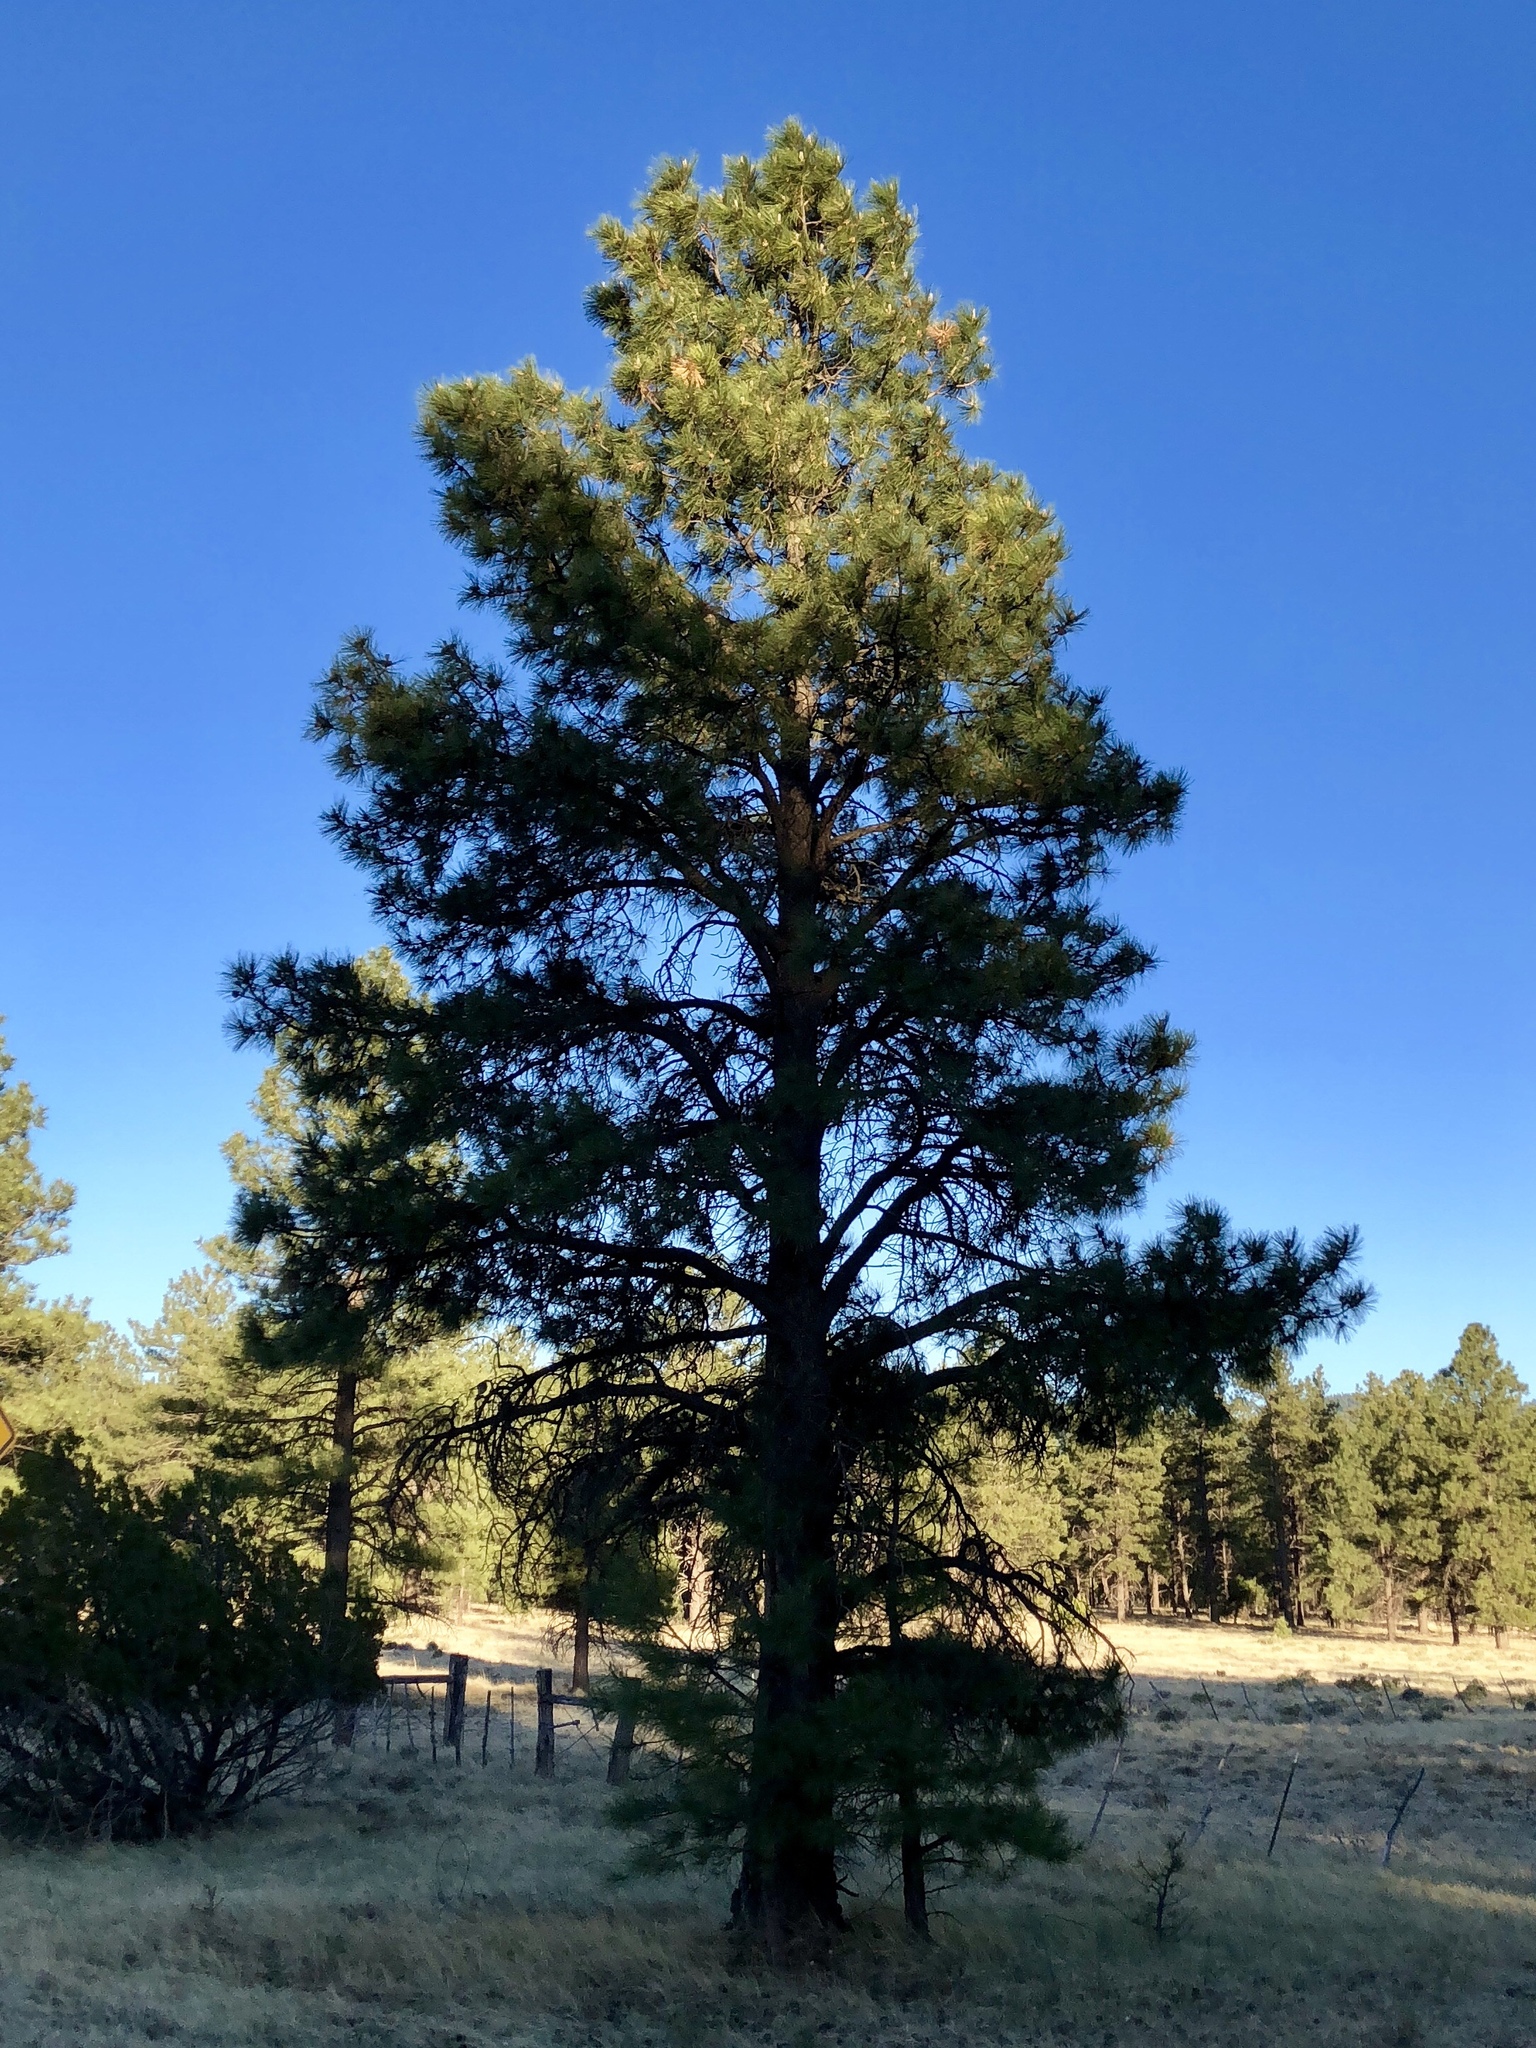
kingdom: Plantae
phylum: Tracheophyta
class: Pinopsida
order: Pinales
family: Pinaceae
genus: Pinus
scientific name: Pinus ponderosa
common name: Western yellow-pine
